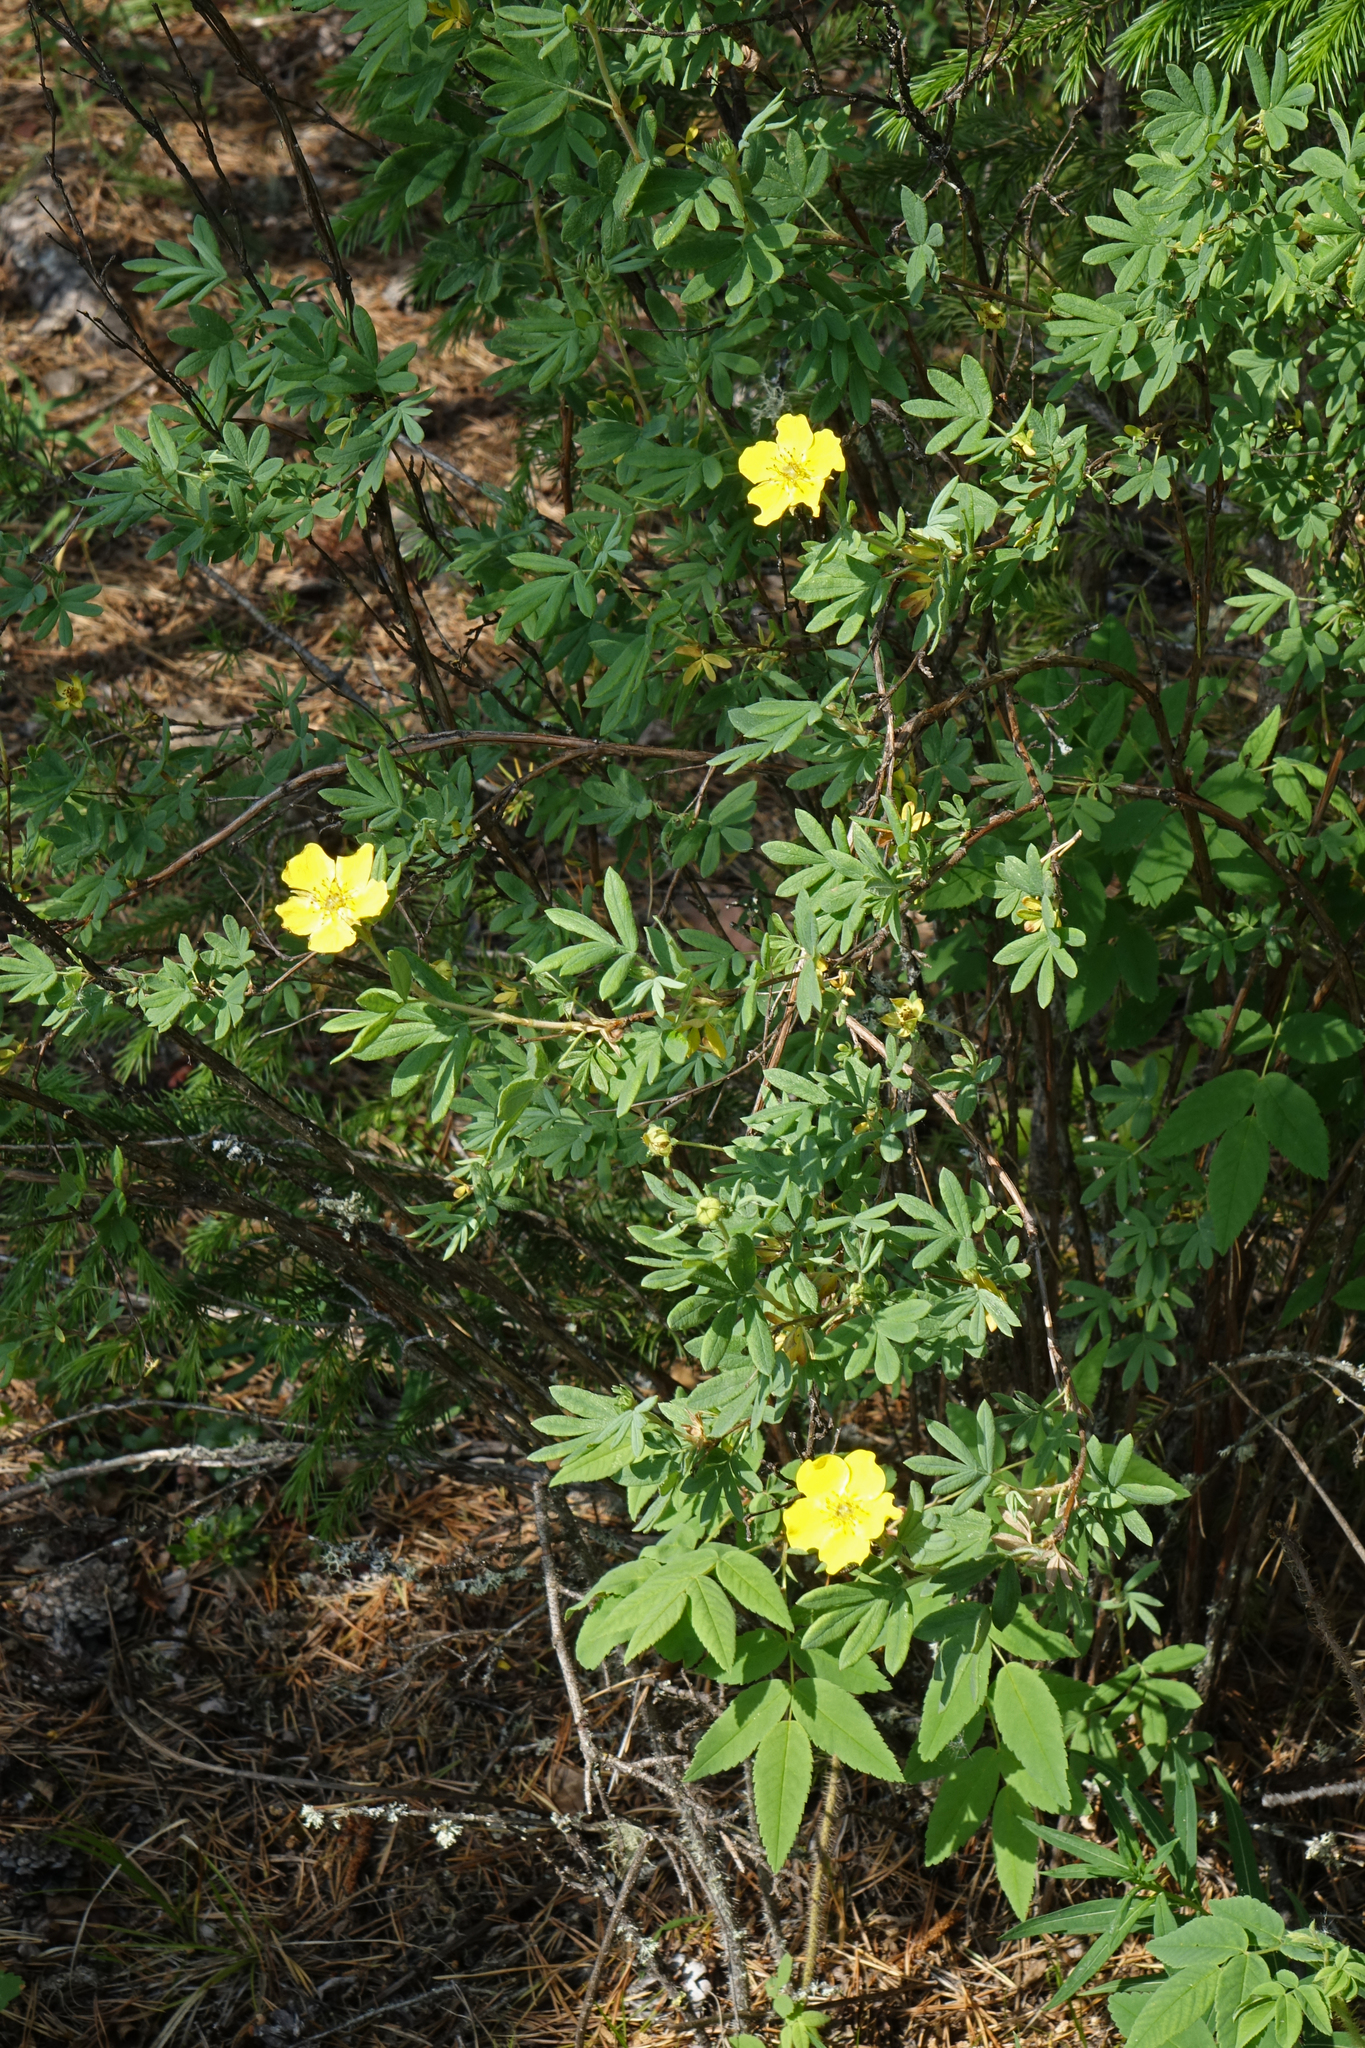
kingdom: Plantae
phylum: Tracheophyta
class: Magnoliopsida
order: Rosales
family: Rosaceae
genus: Dasiphora
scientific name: Dasiphora fruticosa
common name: Shrubby cinquefoil
